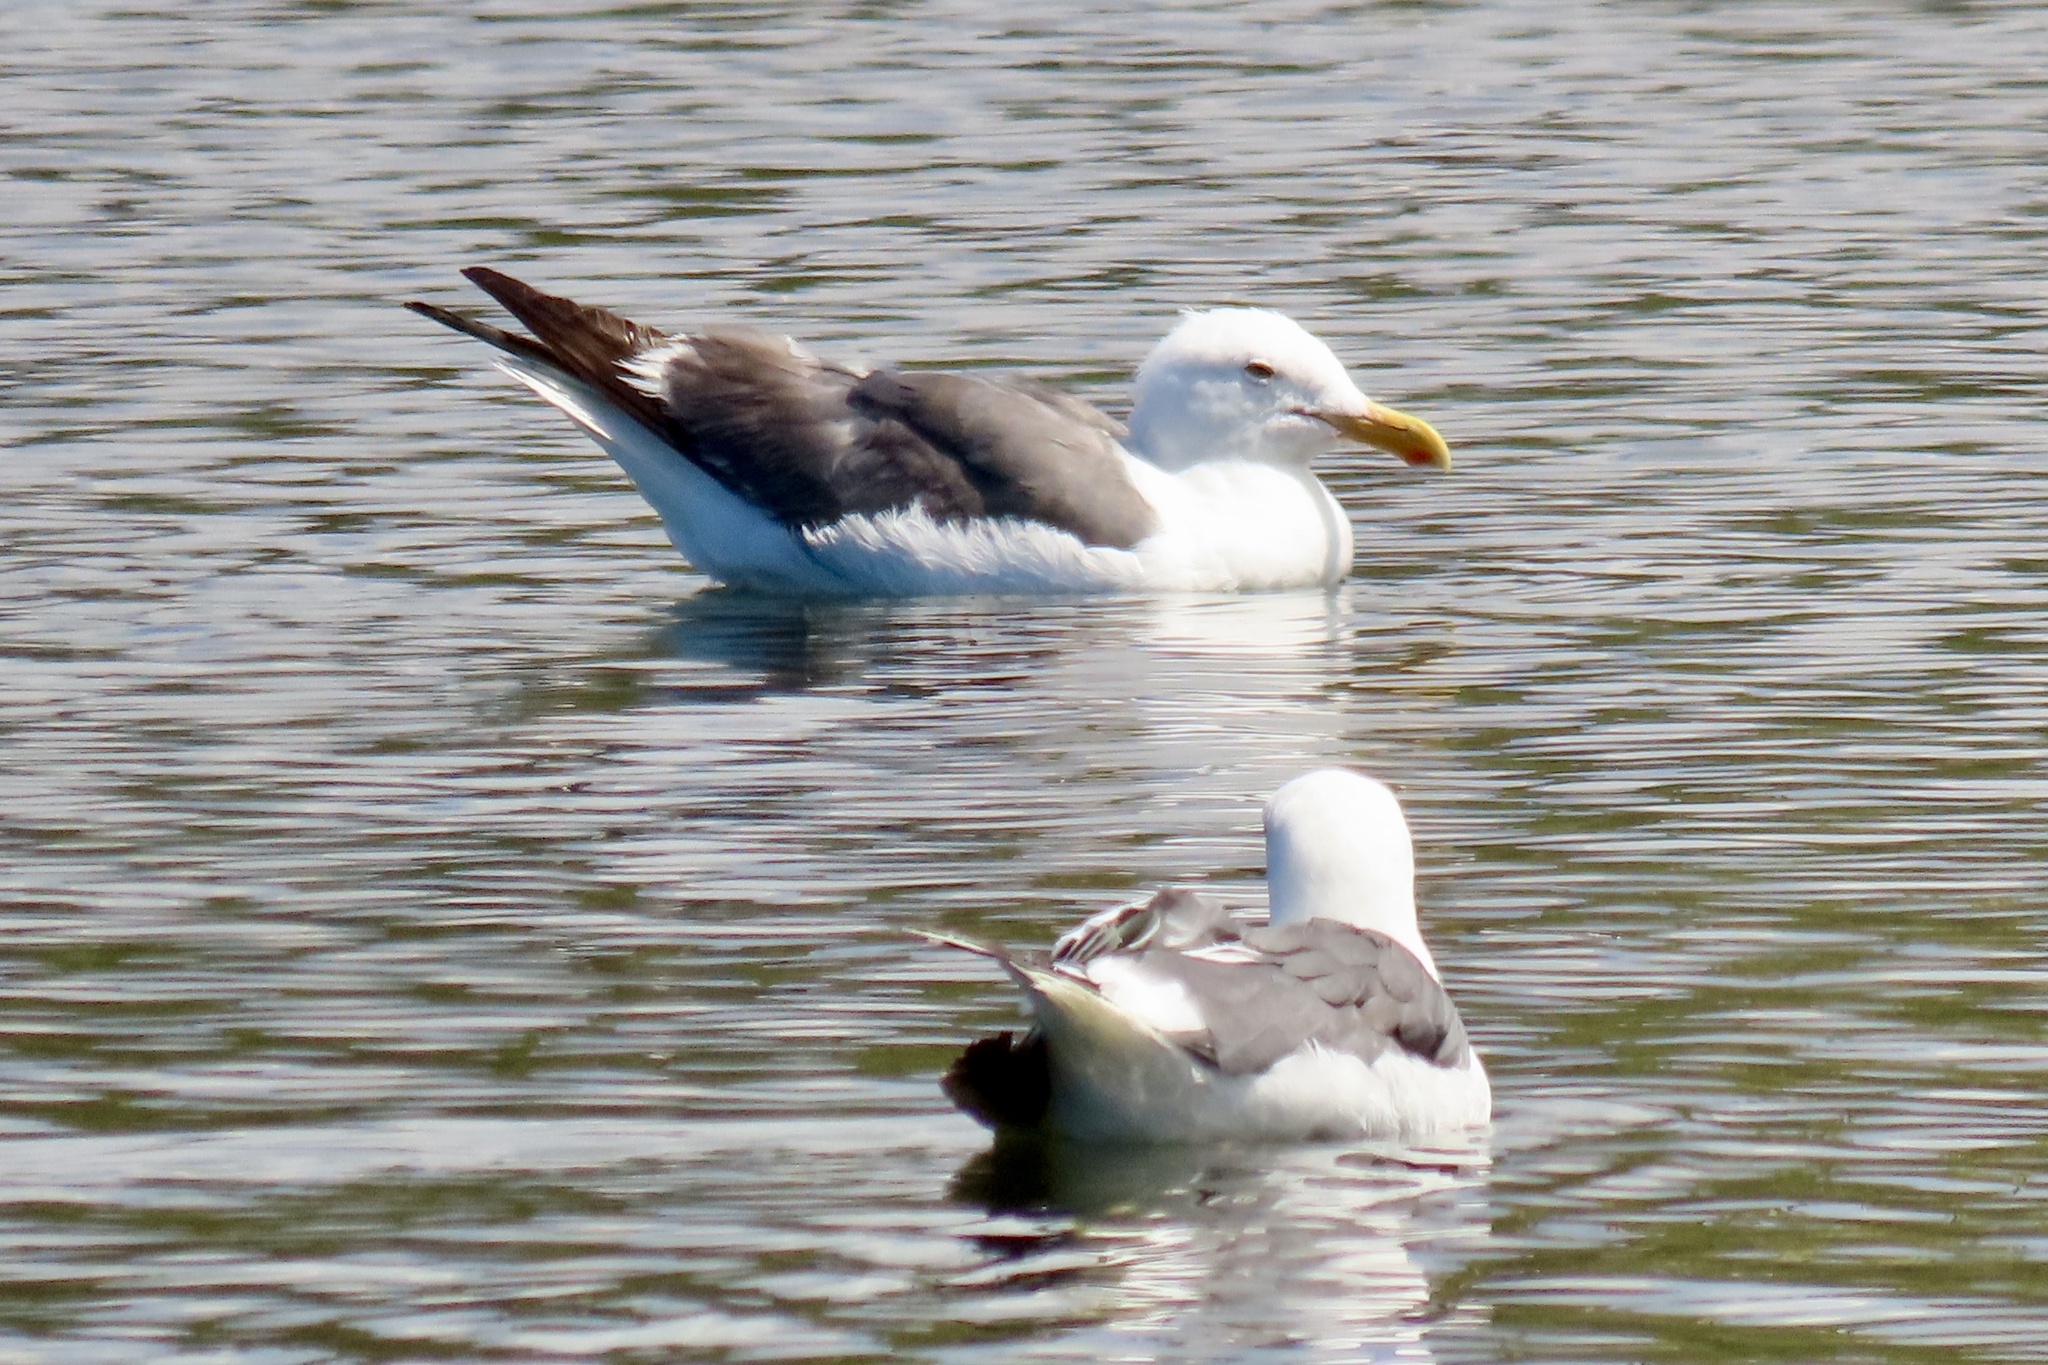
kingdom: Animalia
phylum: Chordata
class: Aves
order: Charadriiformes
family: Laridae
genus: Larus
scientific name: Larus occidentalis
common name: Western gull
